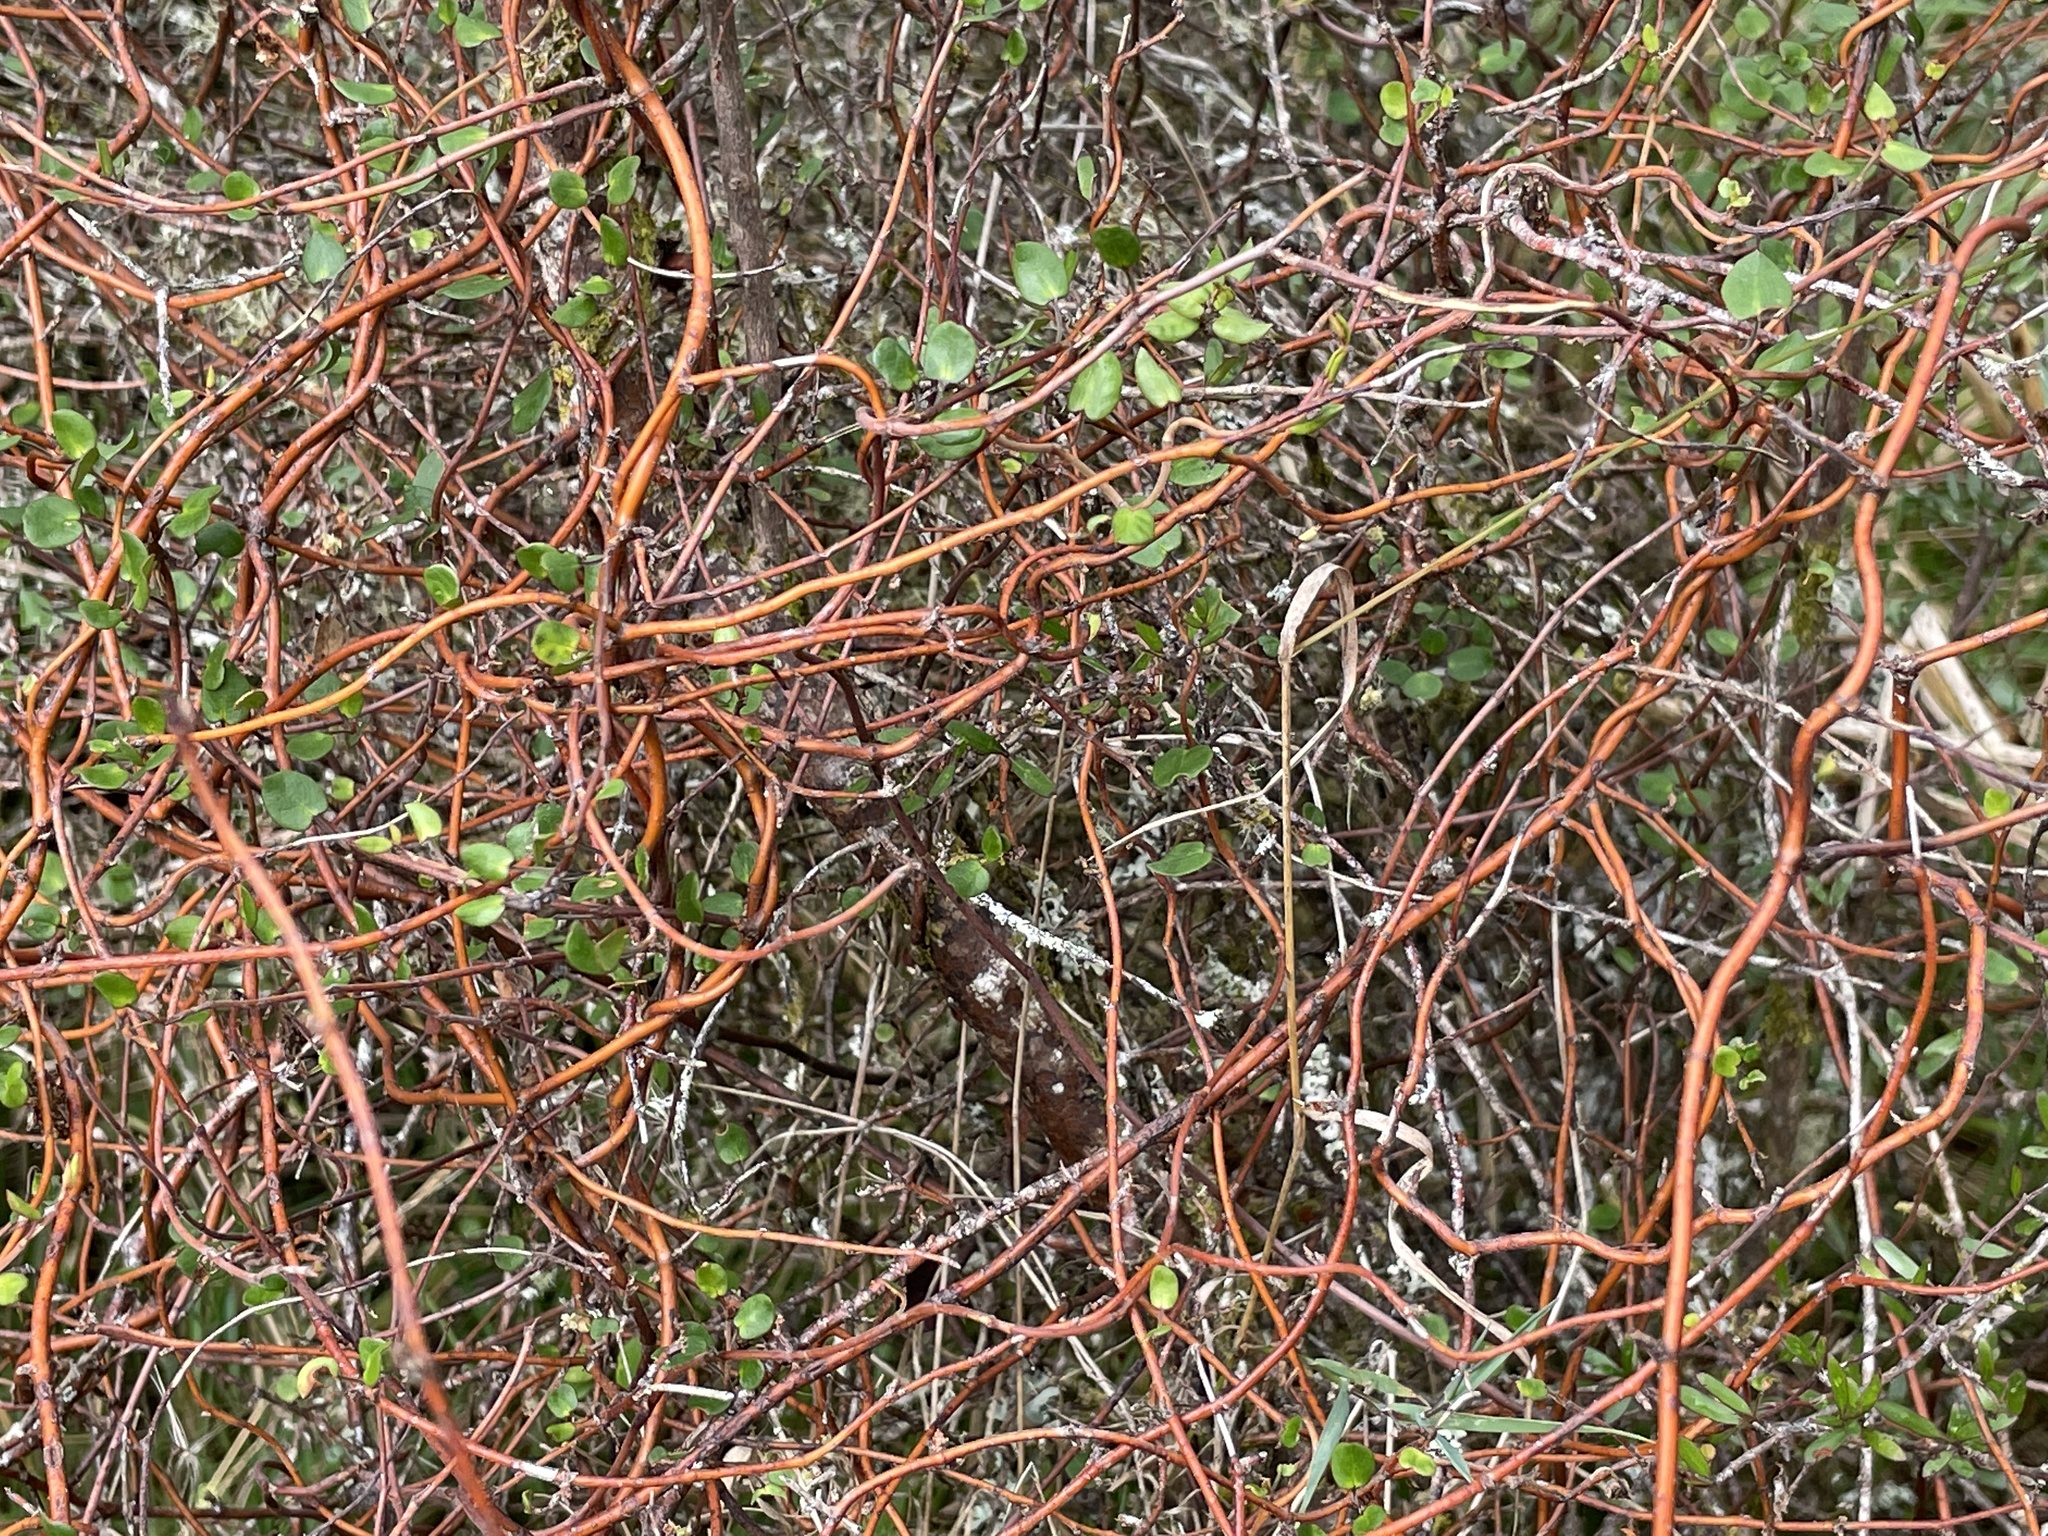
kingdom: Plantae
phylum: Tracheophyta
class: Magnoliopsida
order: Caryophyllales
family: Polygonaceae
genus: Muehlenbeckia
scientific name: Muehlenbeckia complexa
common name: Wireplant
